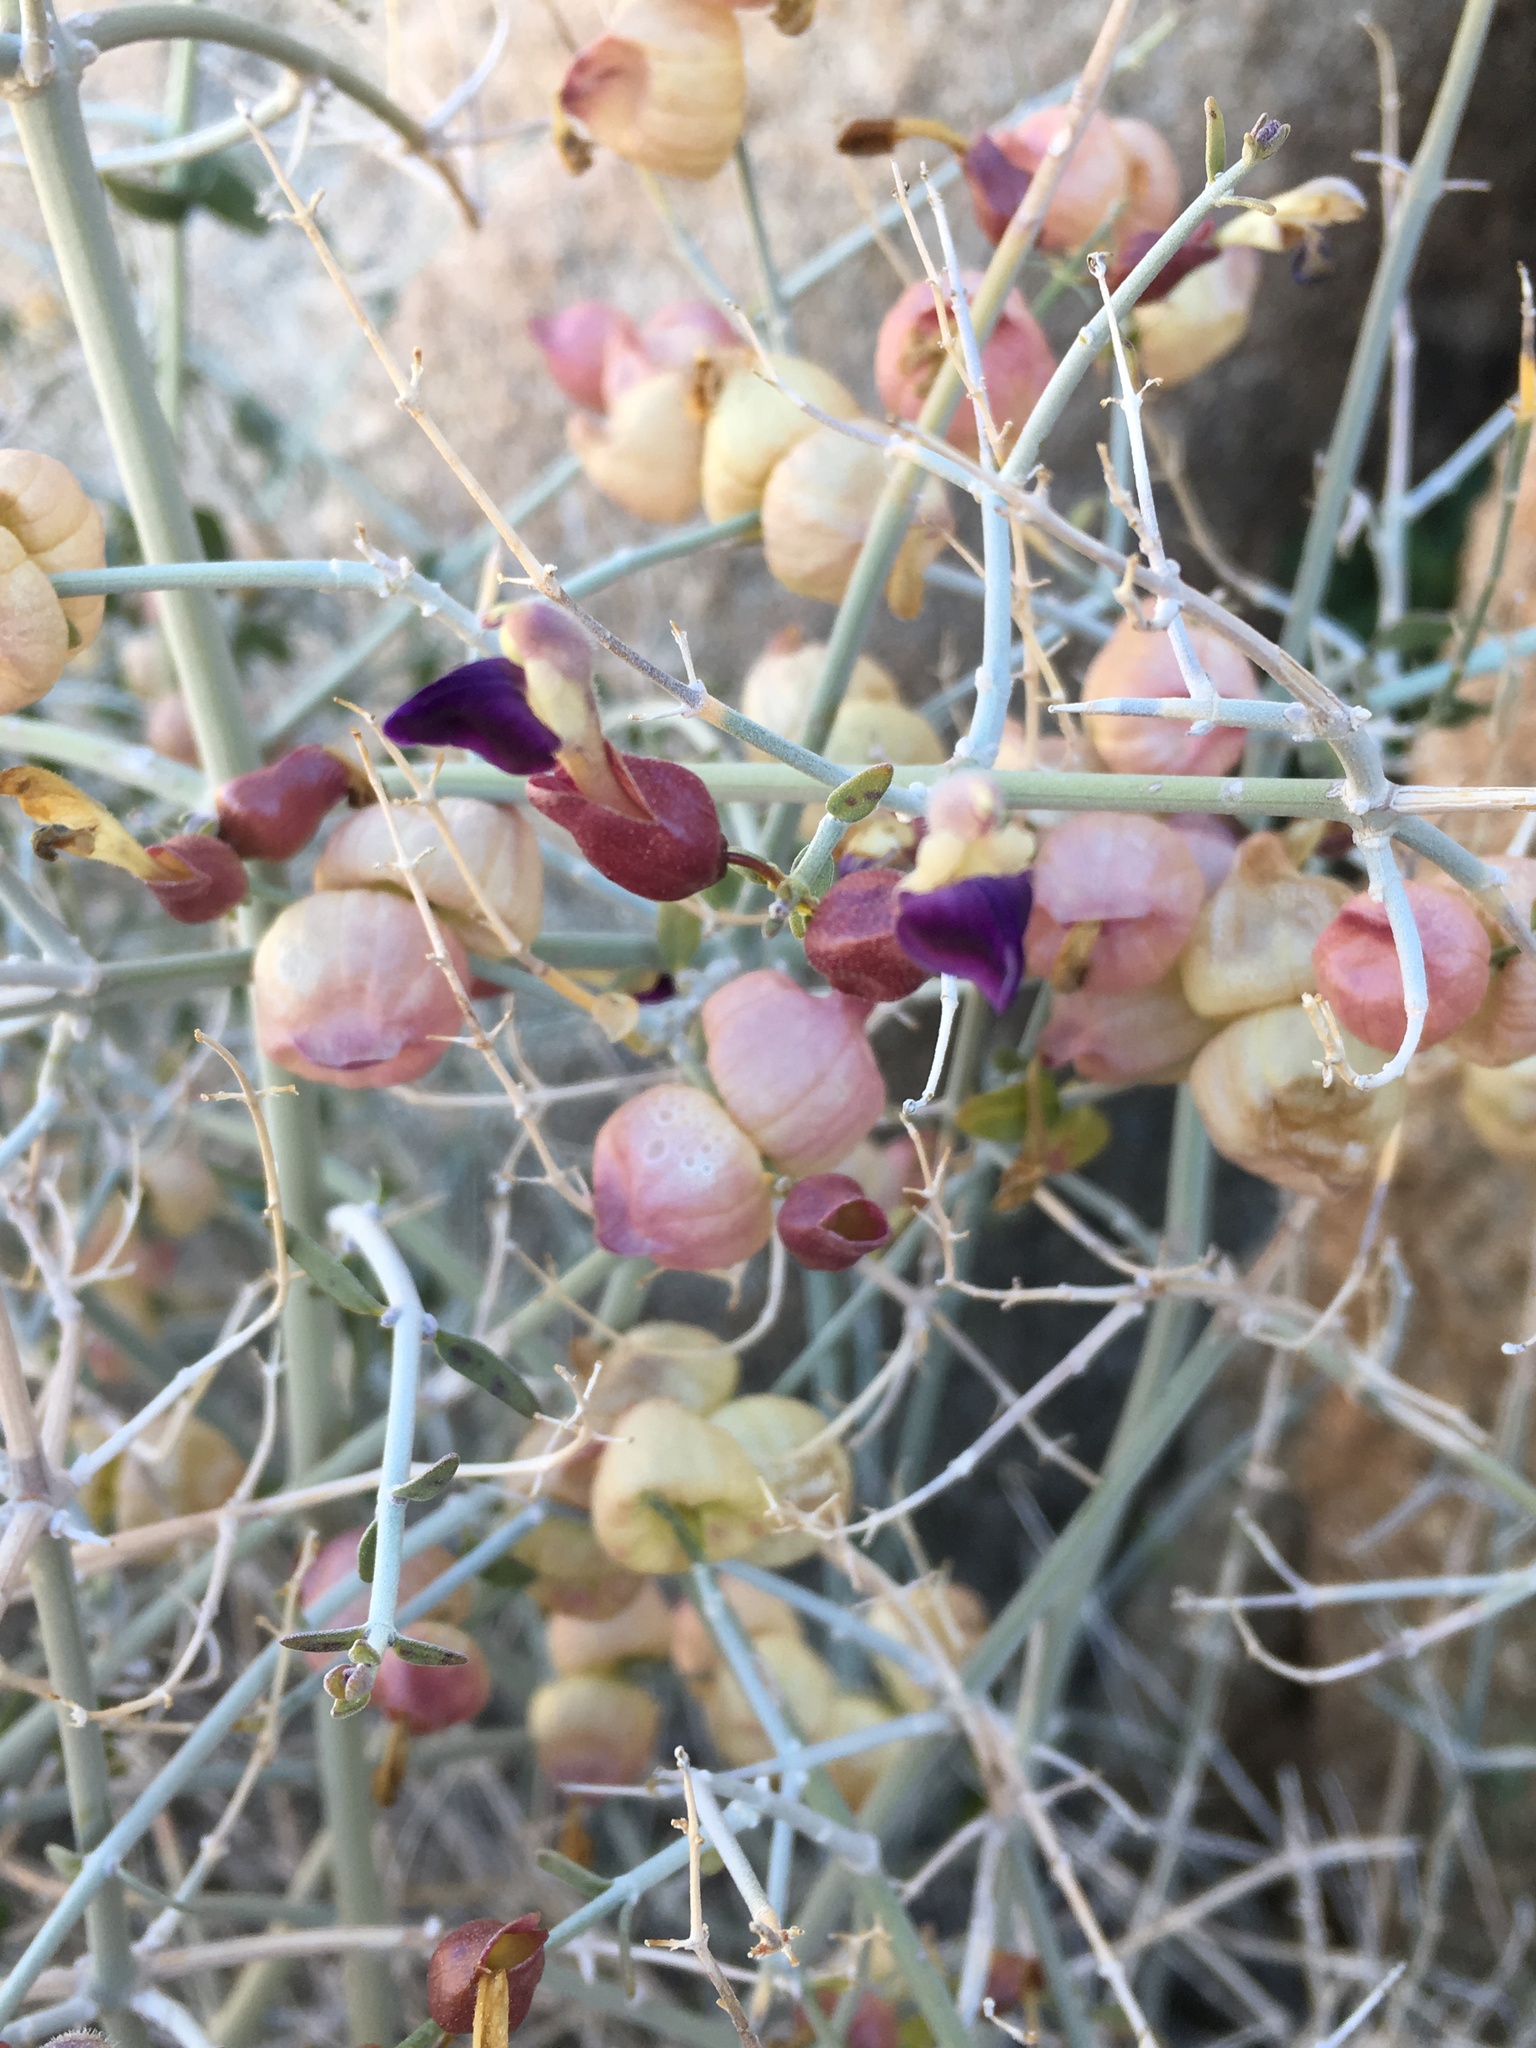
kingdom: Plantae
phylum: Tracheophyta
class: Magnoliopsida
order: Lamiales
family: Lamiaceae
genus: Scutellaria
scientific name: Scutellaria mexicana
